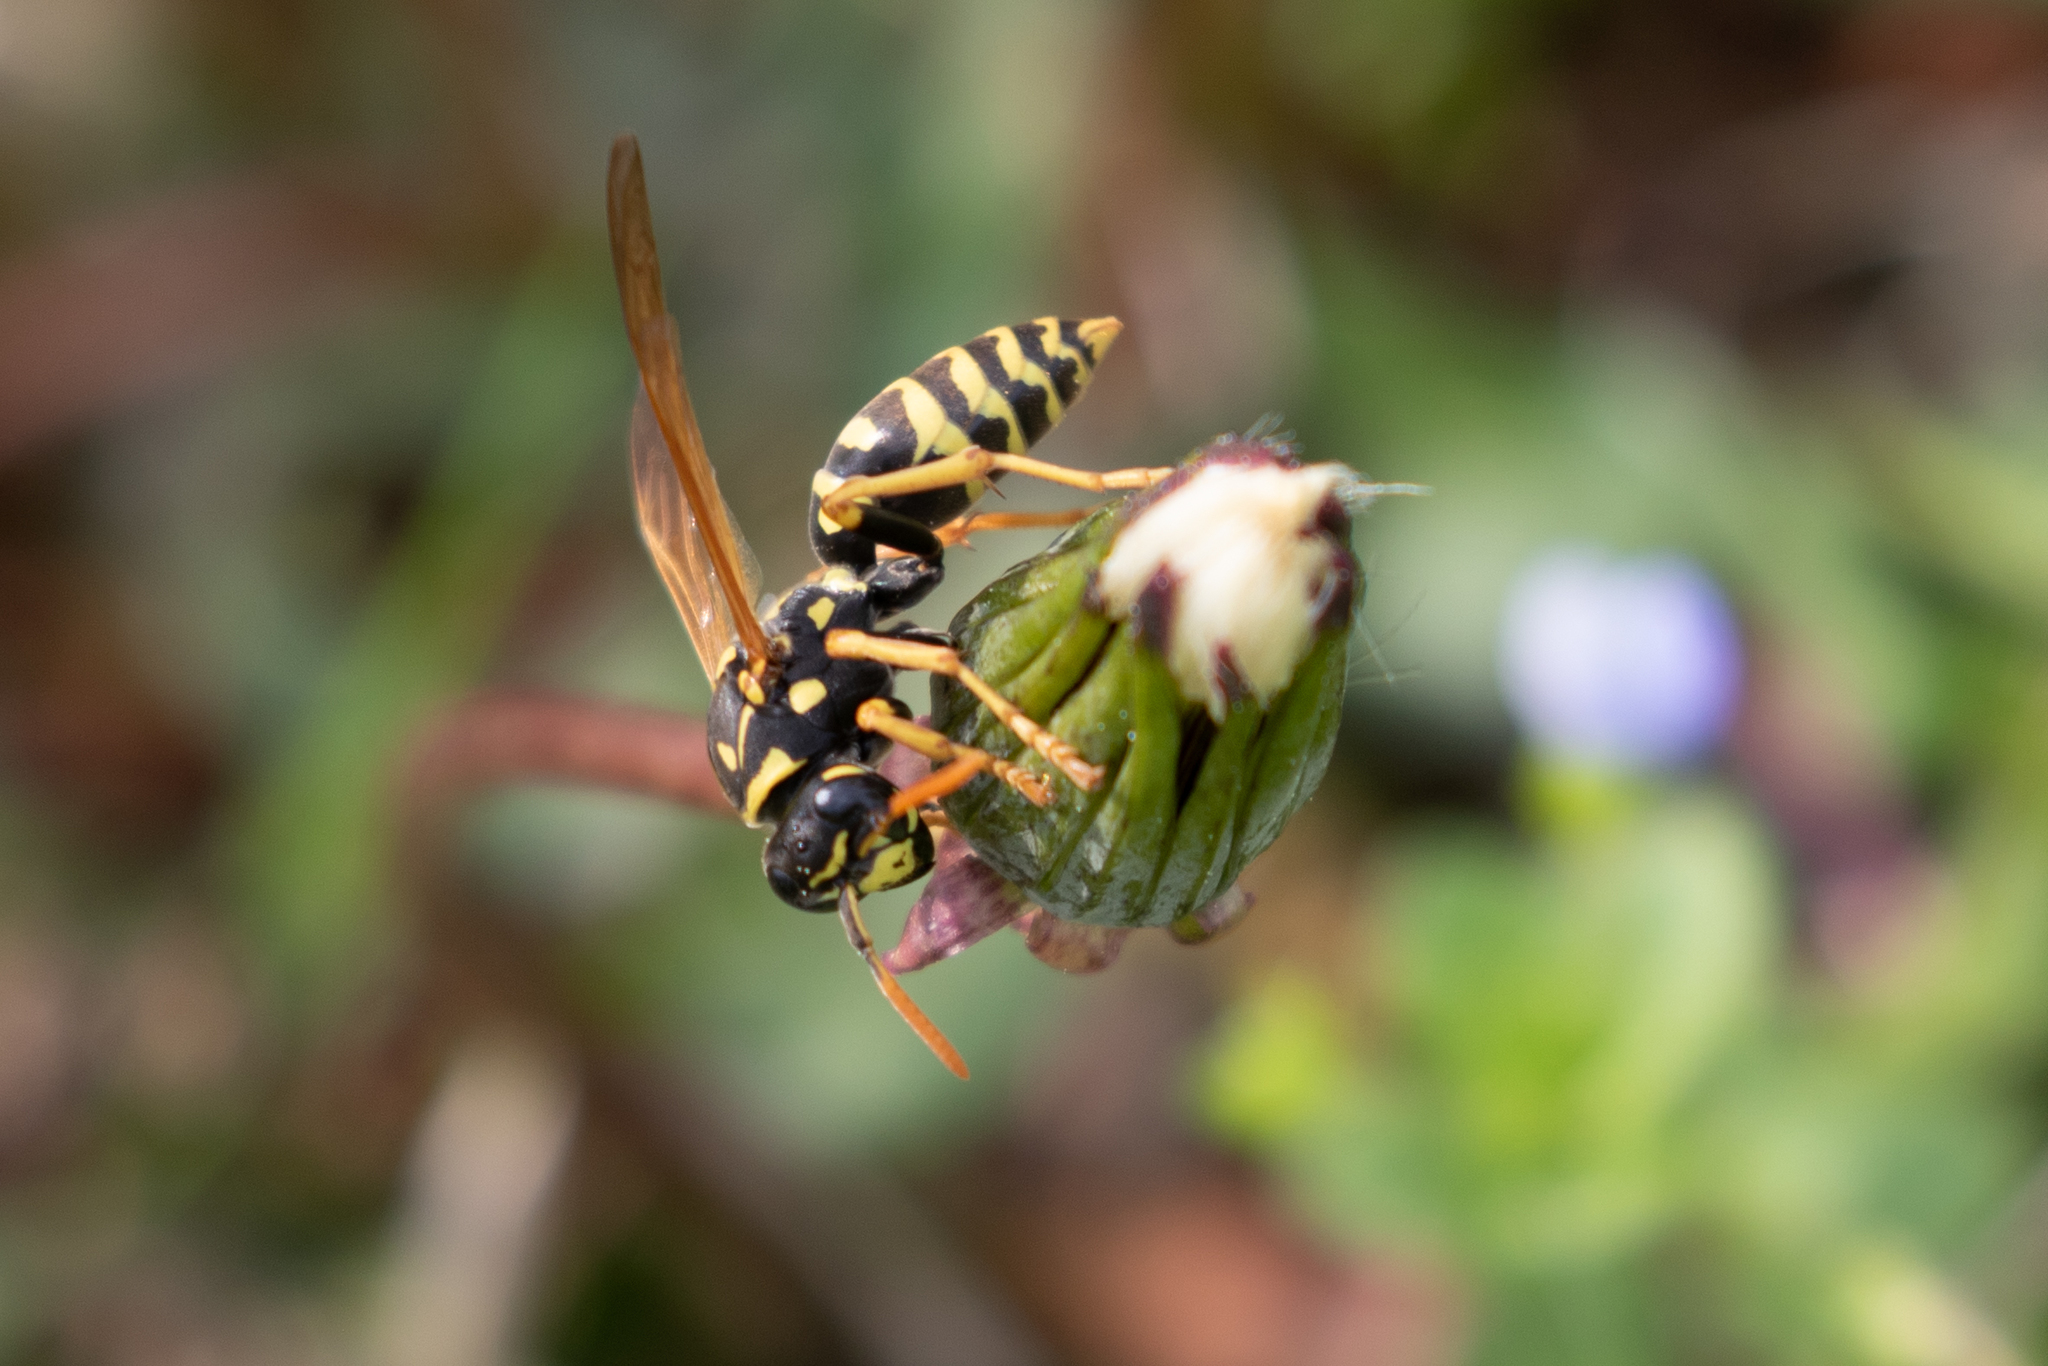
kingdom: Animalia
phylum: Arthropoda
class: Insecta
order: Hymenoptera
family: Eumenidae
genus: Polistes
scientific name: Polistes dominula
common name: Paper wasp
